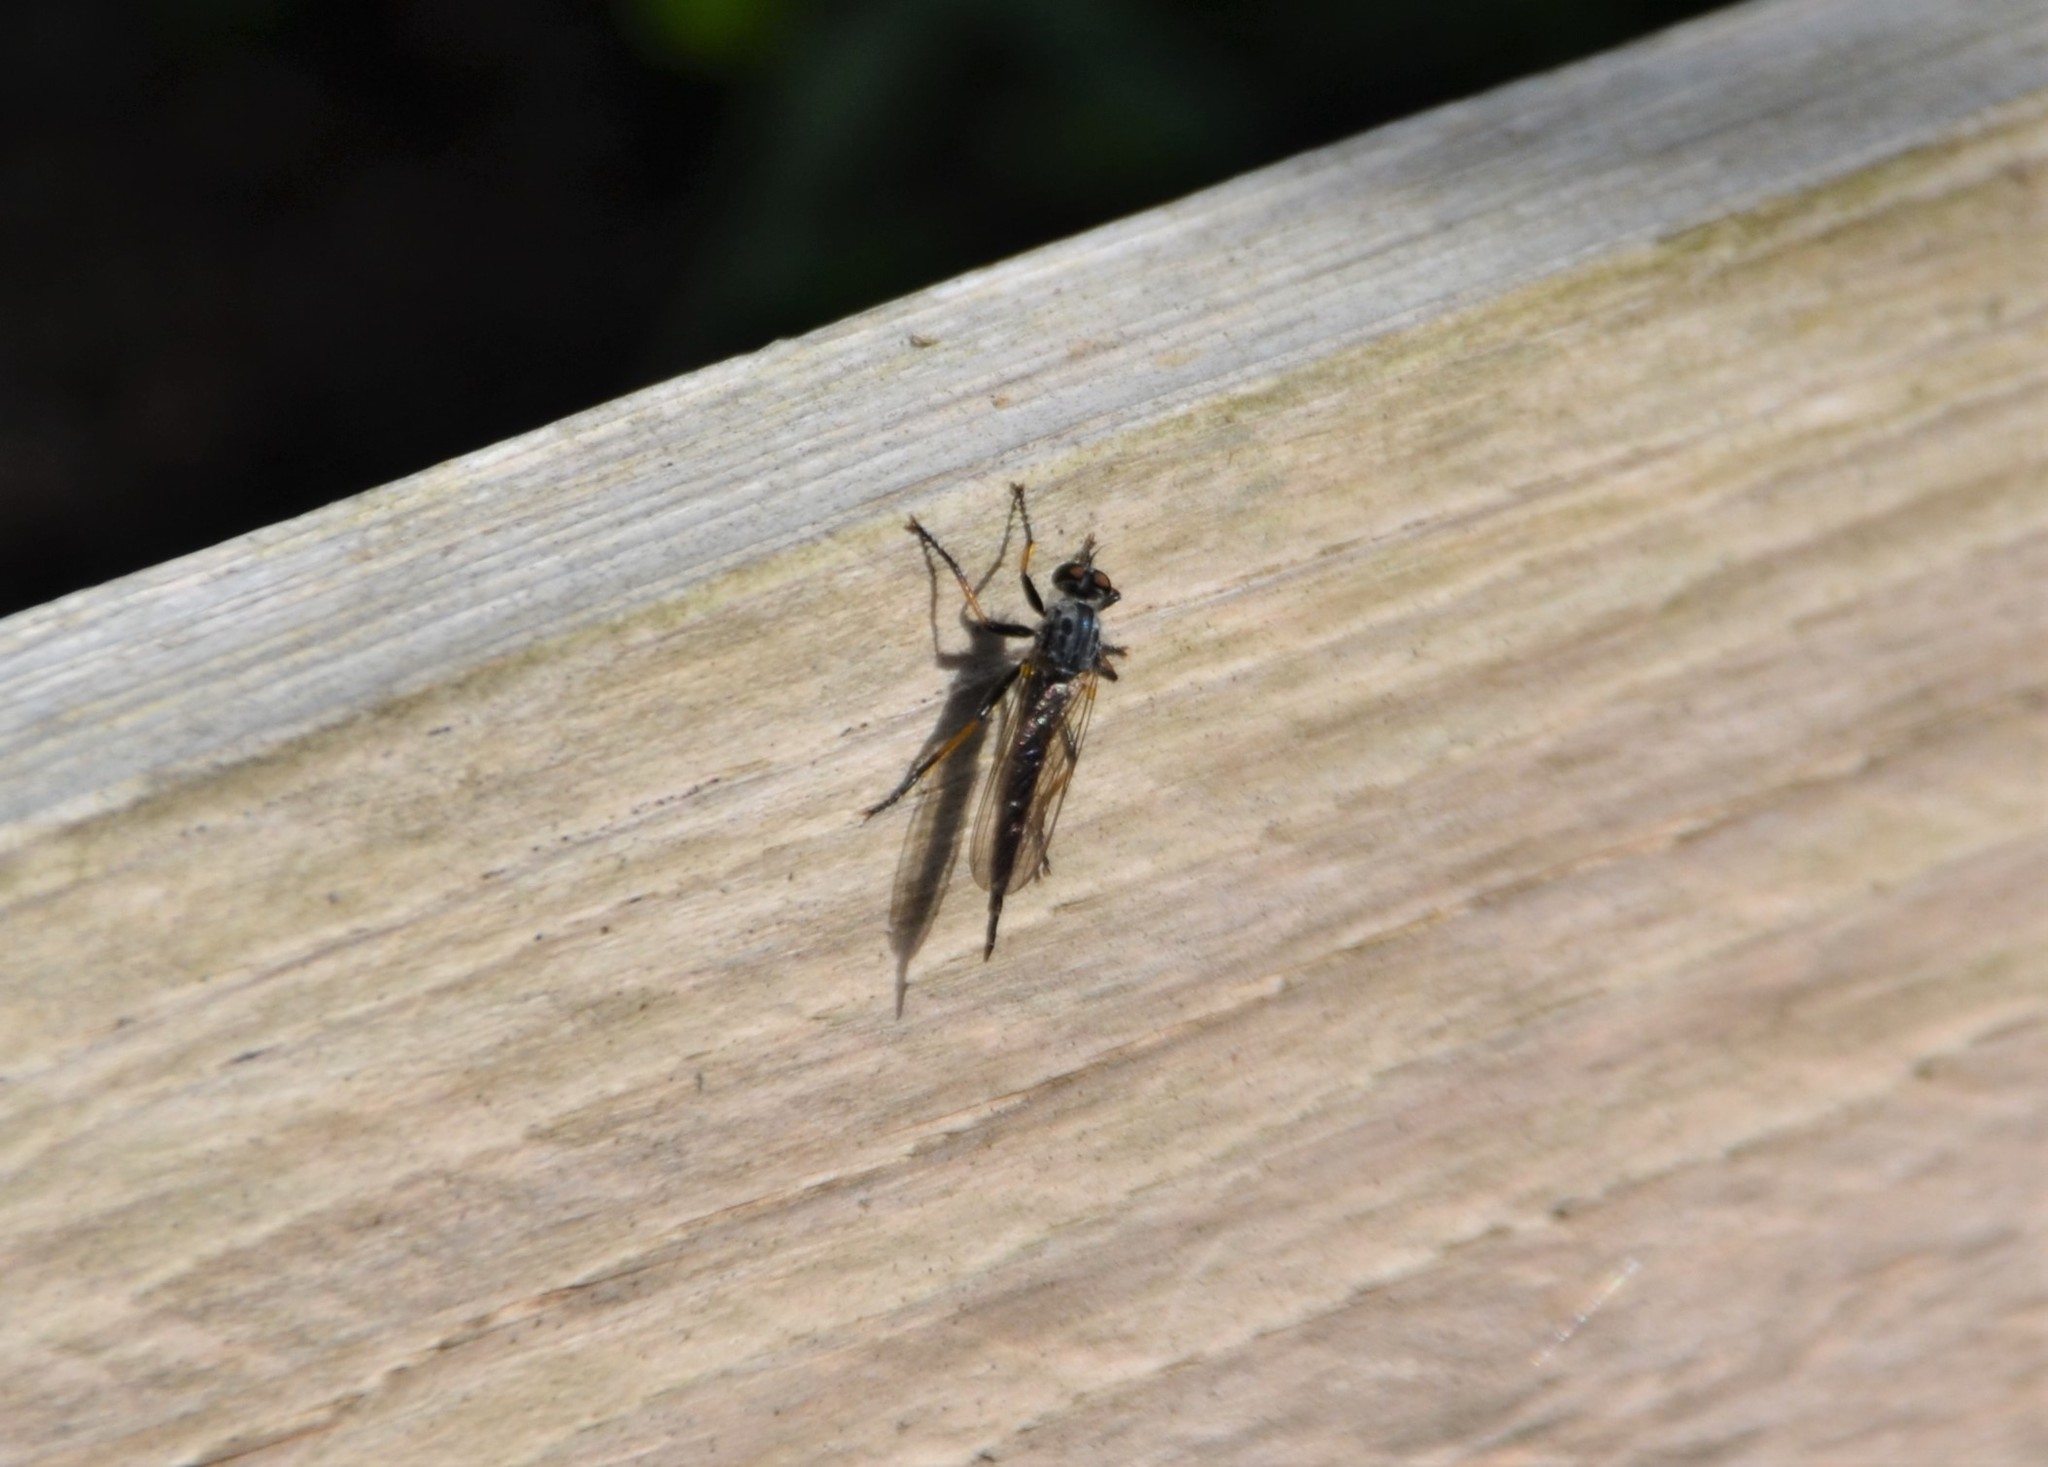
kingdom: Animalia
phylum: Arthropoda
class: Insecta
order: Diptera
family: Asilidae
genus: Neoitamus
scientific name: Neoitamus cyanurus
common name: Common awl robberfly
